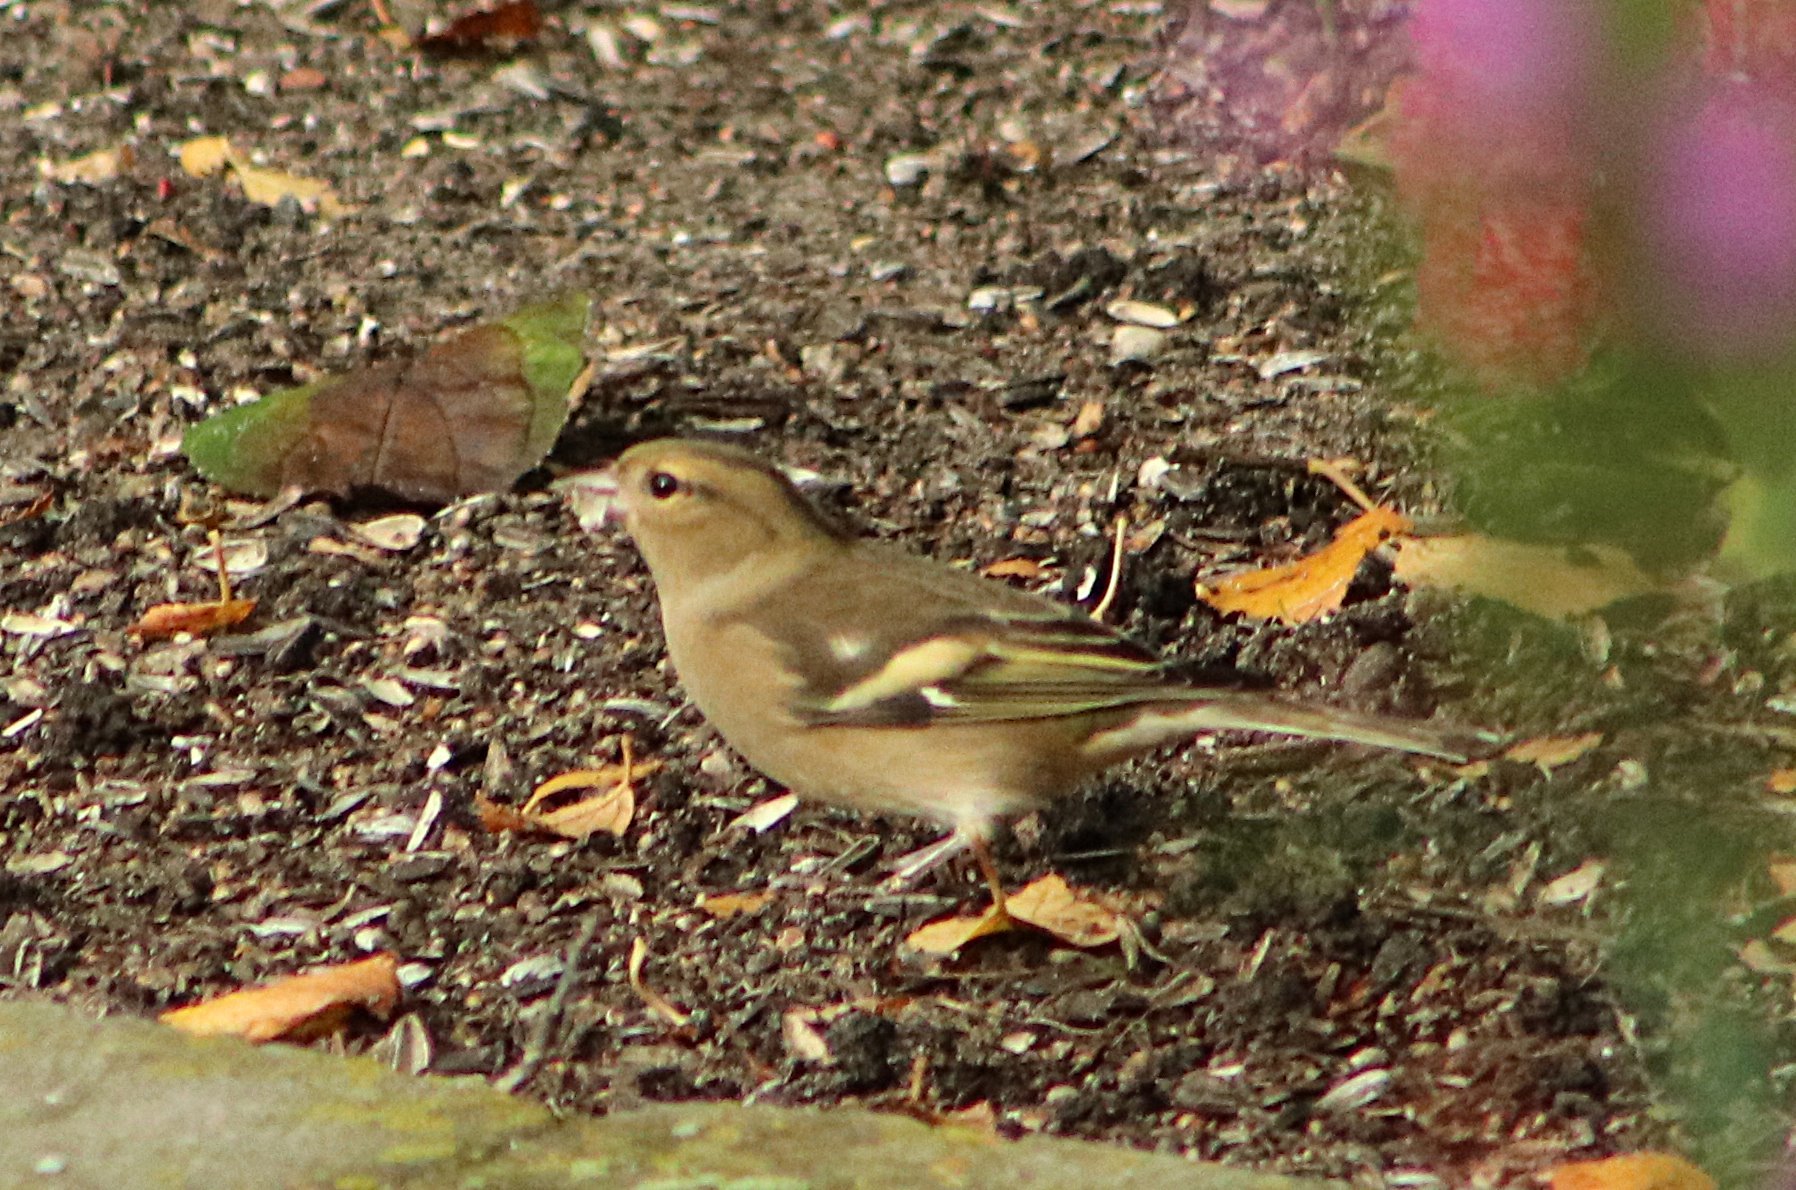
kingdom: Animalia
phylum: Chordata
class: Aves
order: Passeriformes
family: Fringillidae
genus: Fringilla
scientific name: Fringilla coelebs
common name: Common chaffinch
